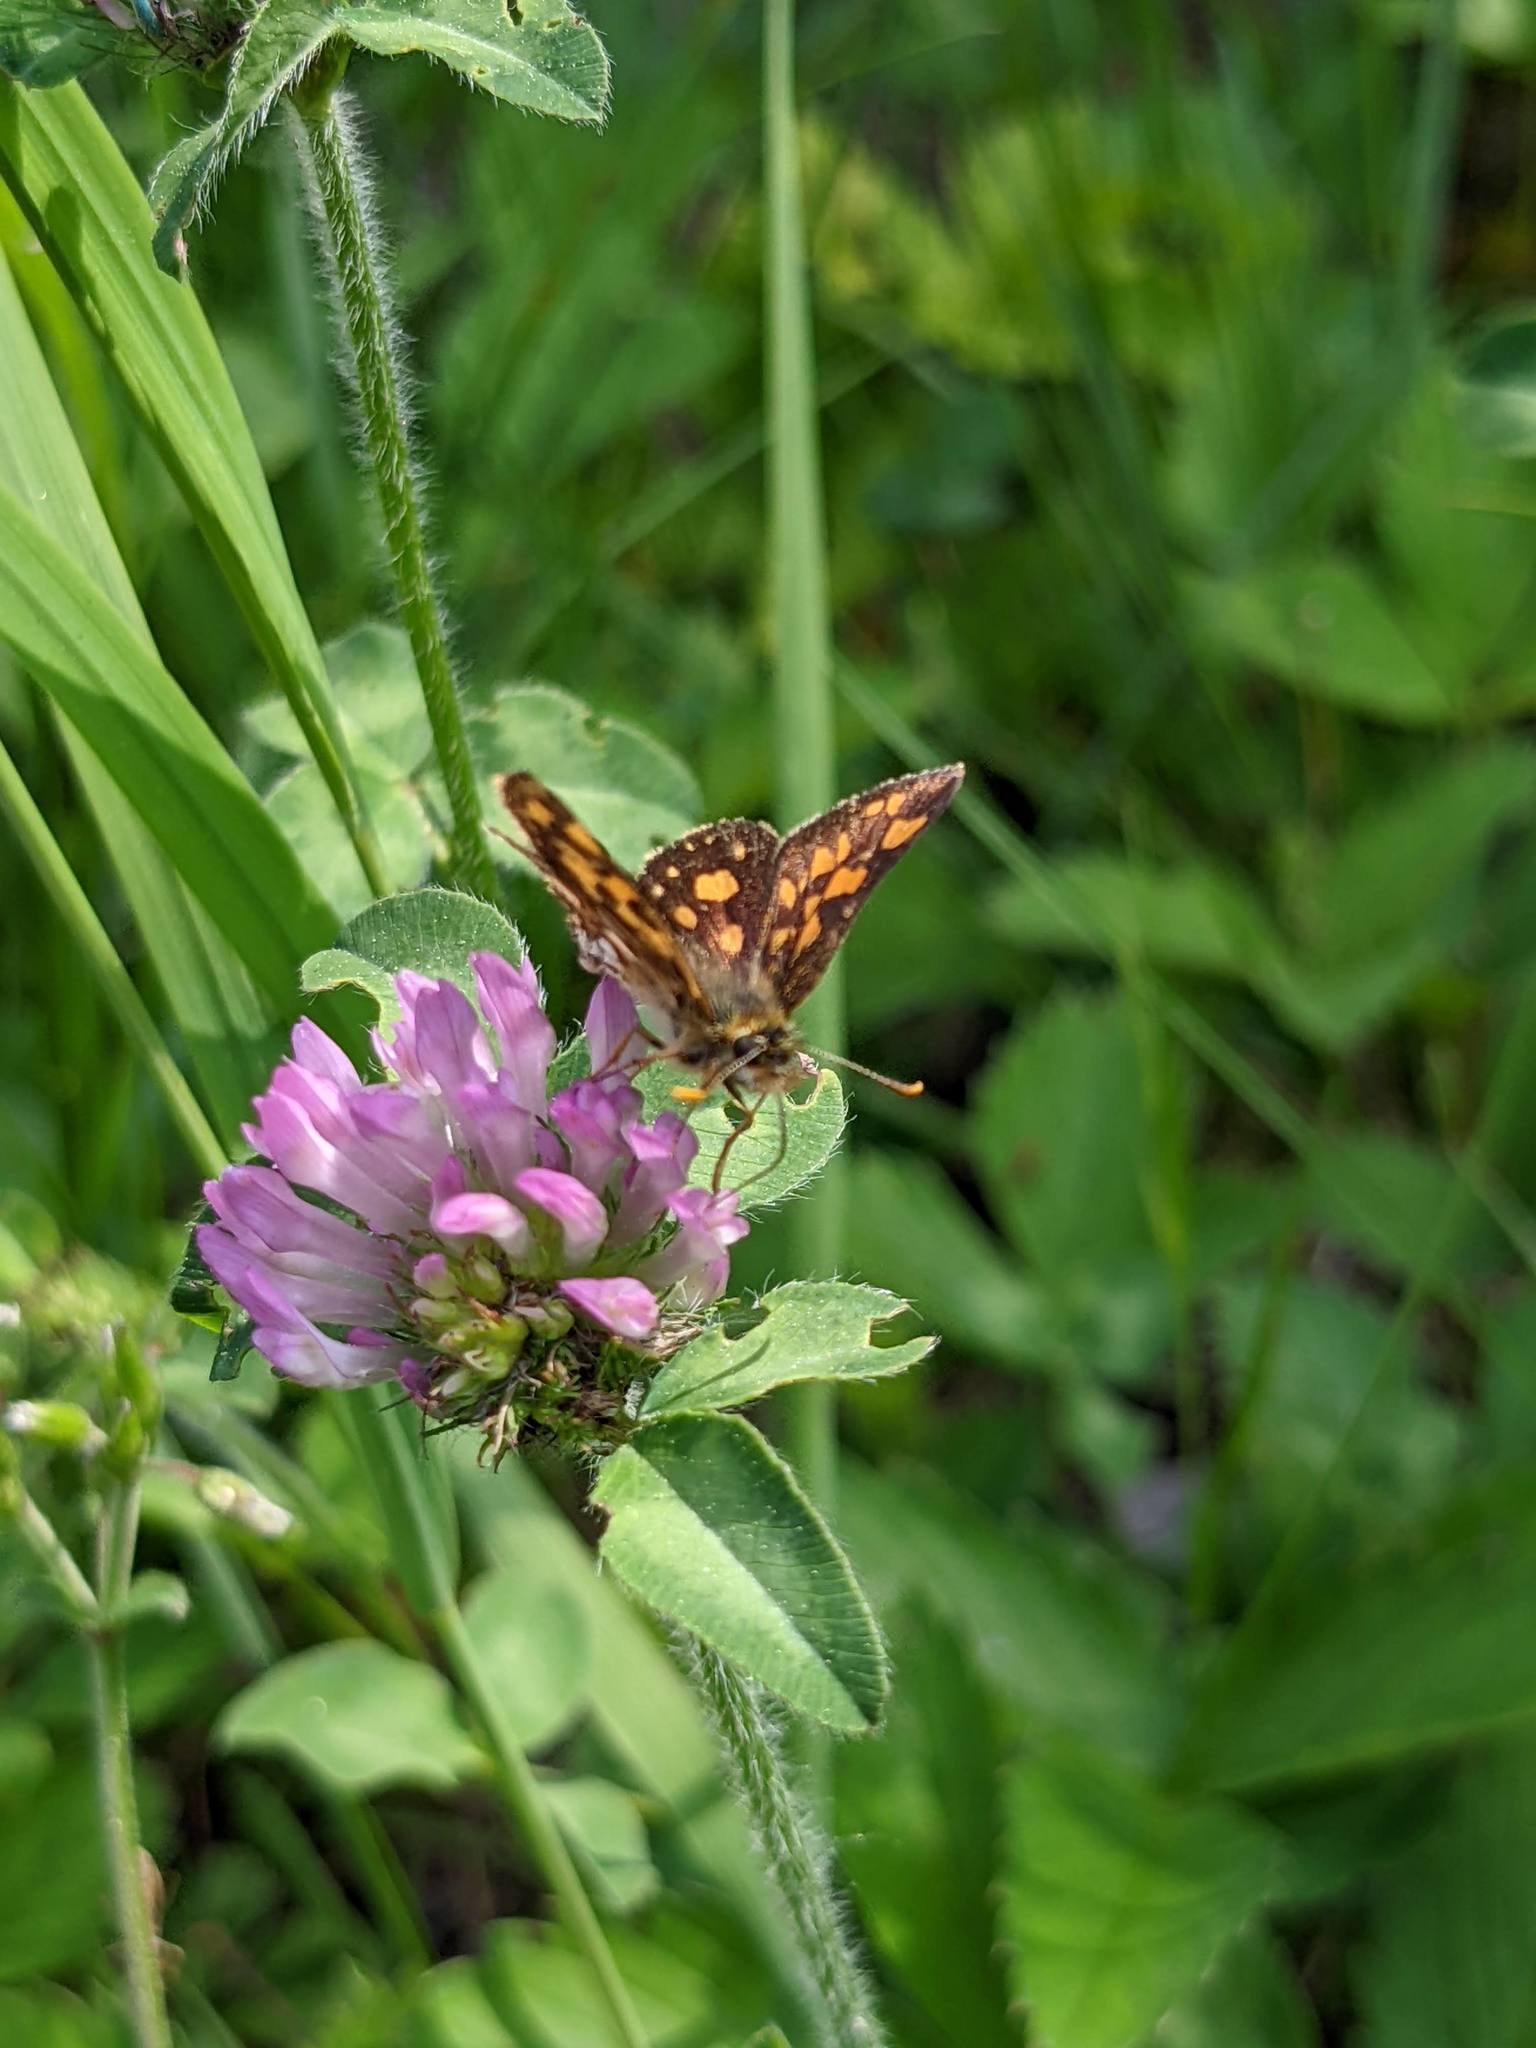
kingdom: Plantae
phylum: Tracheophyta
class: Magnoliopsida
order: Fabales
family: Fabaceae
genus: Trifolium
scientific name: Trifolium pratense
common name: Red clover
